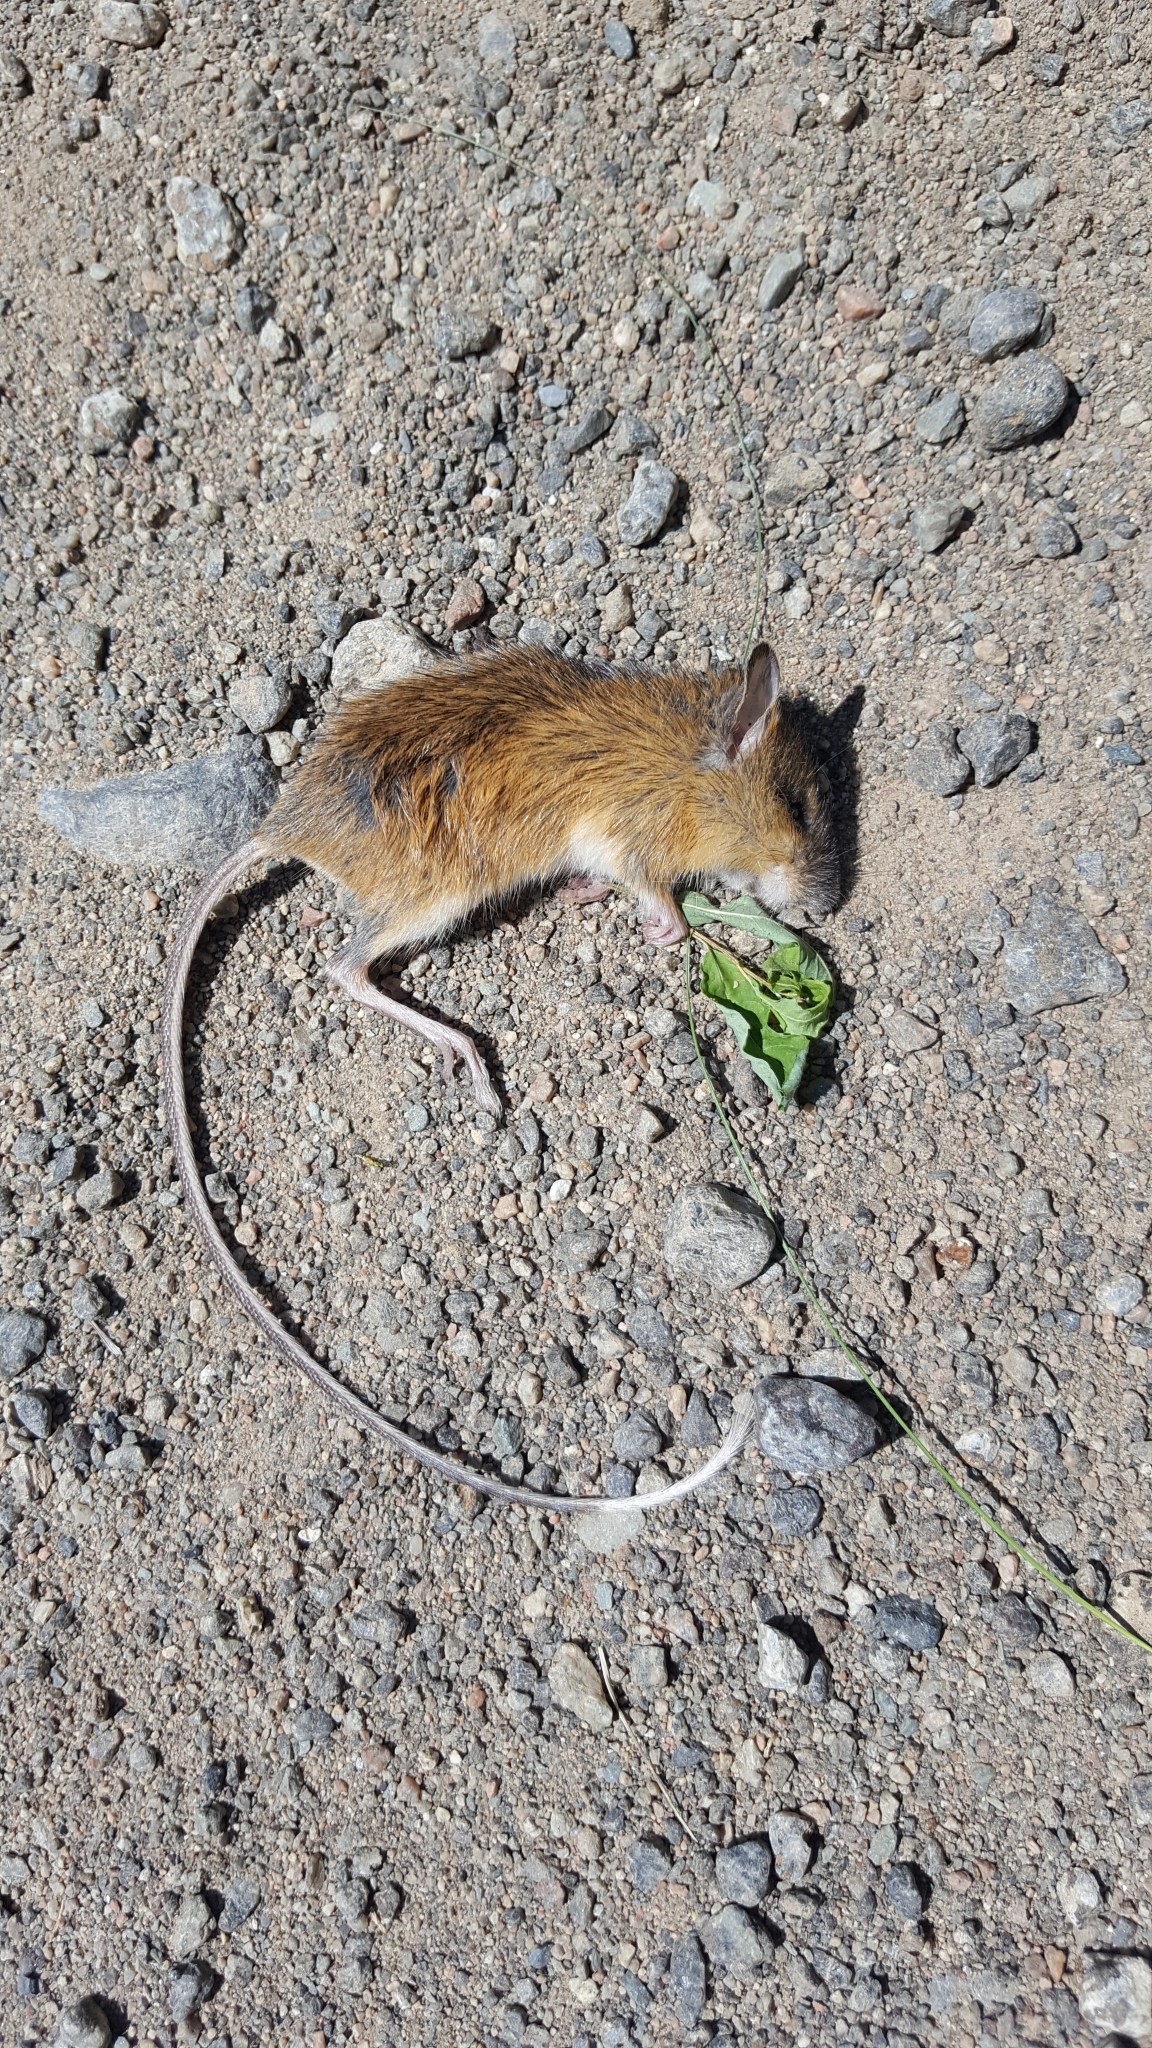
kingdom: Animalia
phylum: Chordata
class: Mammalia
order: Rodentia
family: Dipodidae
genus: Napaeozapus
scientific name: Napaeozapus insignis
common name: Woodland jumping mouse
